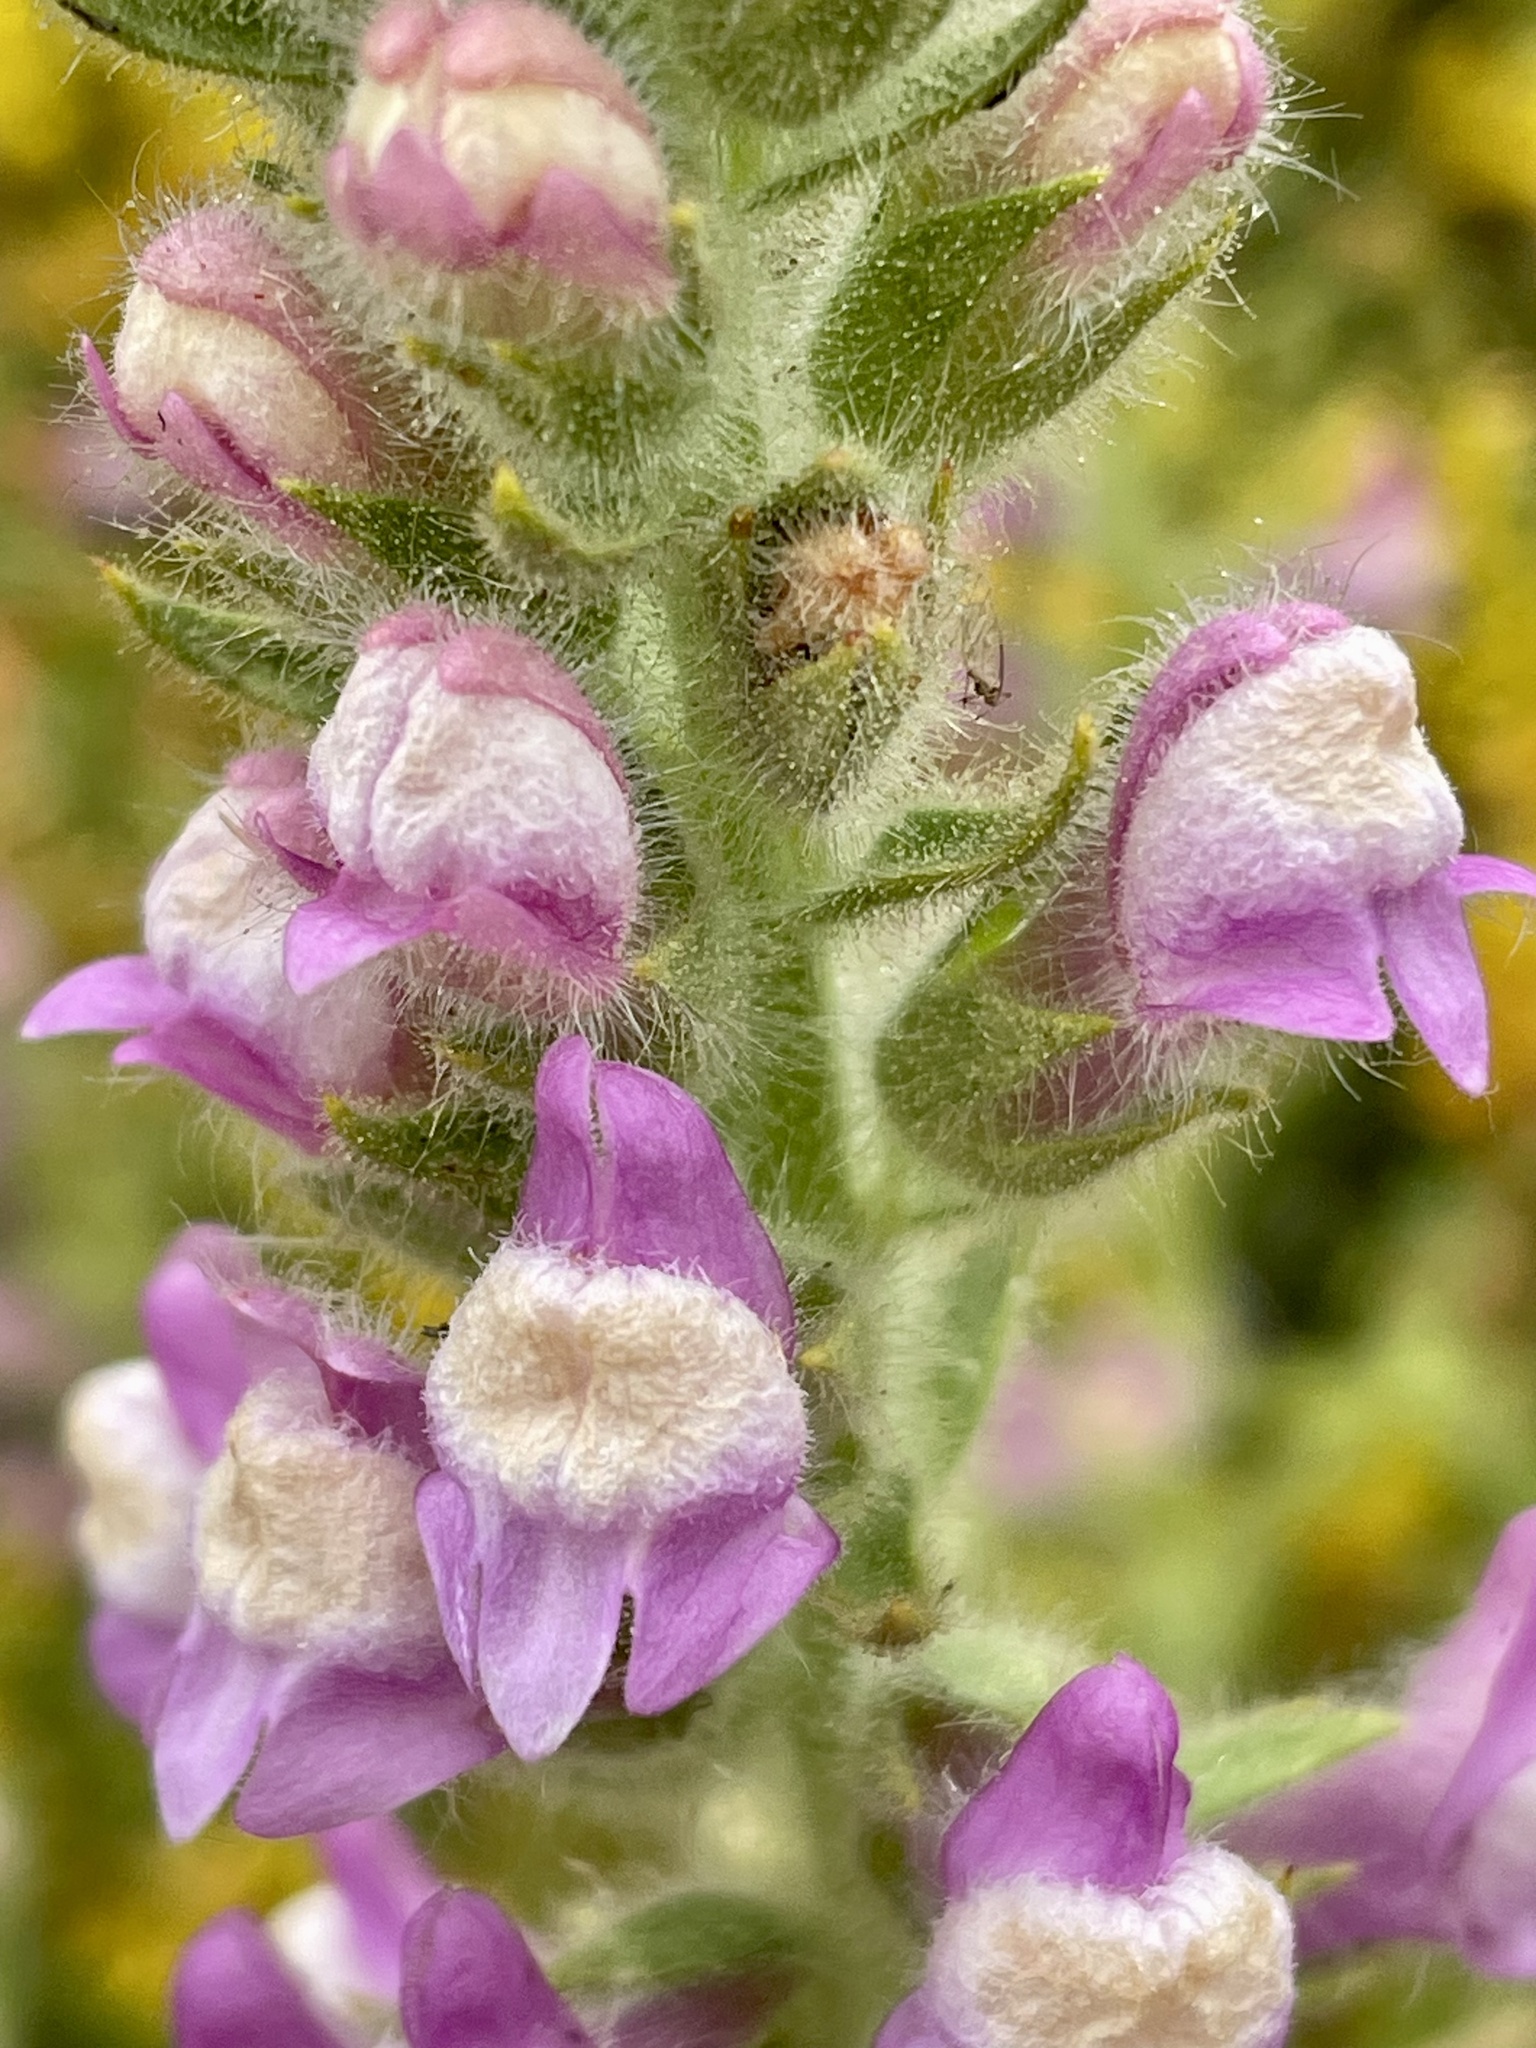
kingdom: Plantae
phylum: Tracheophyta
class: Magnoliopsida
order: Lamiales
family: Plantaginaceae
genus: Sairocarpus
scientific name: Sairocarpus multiflorus
